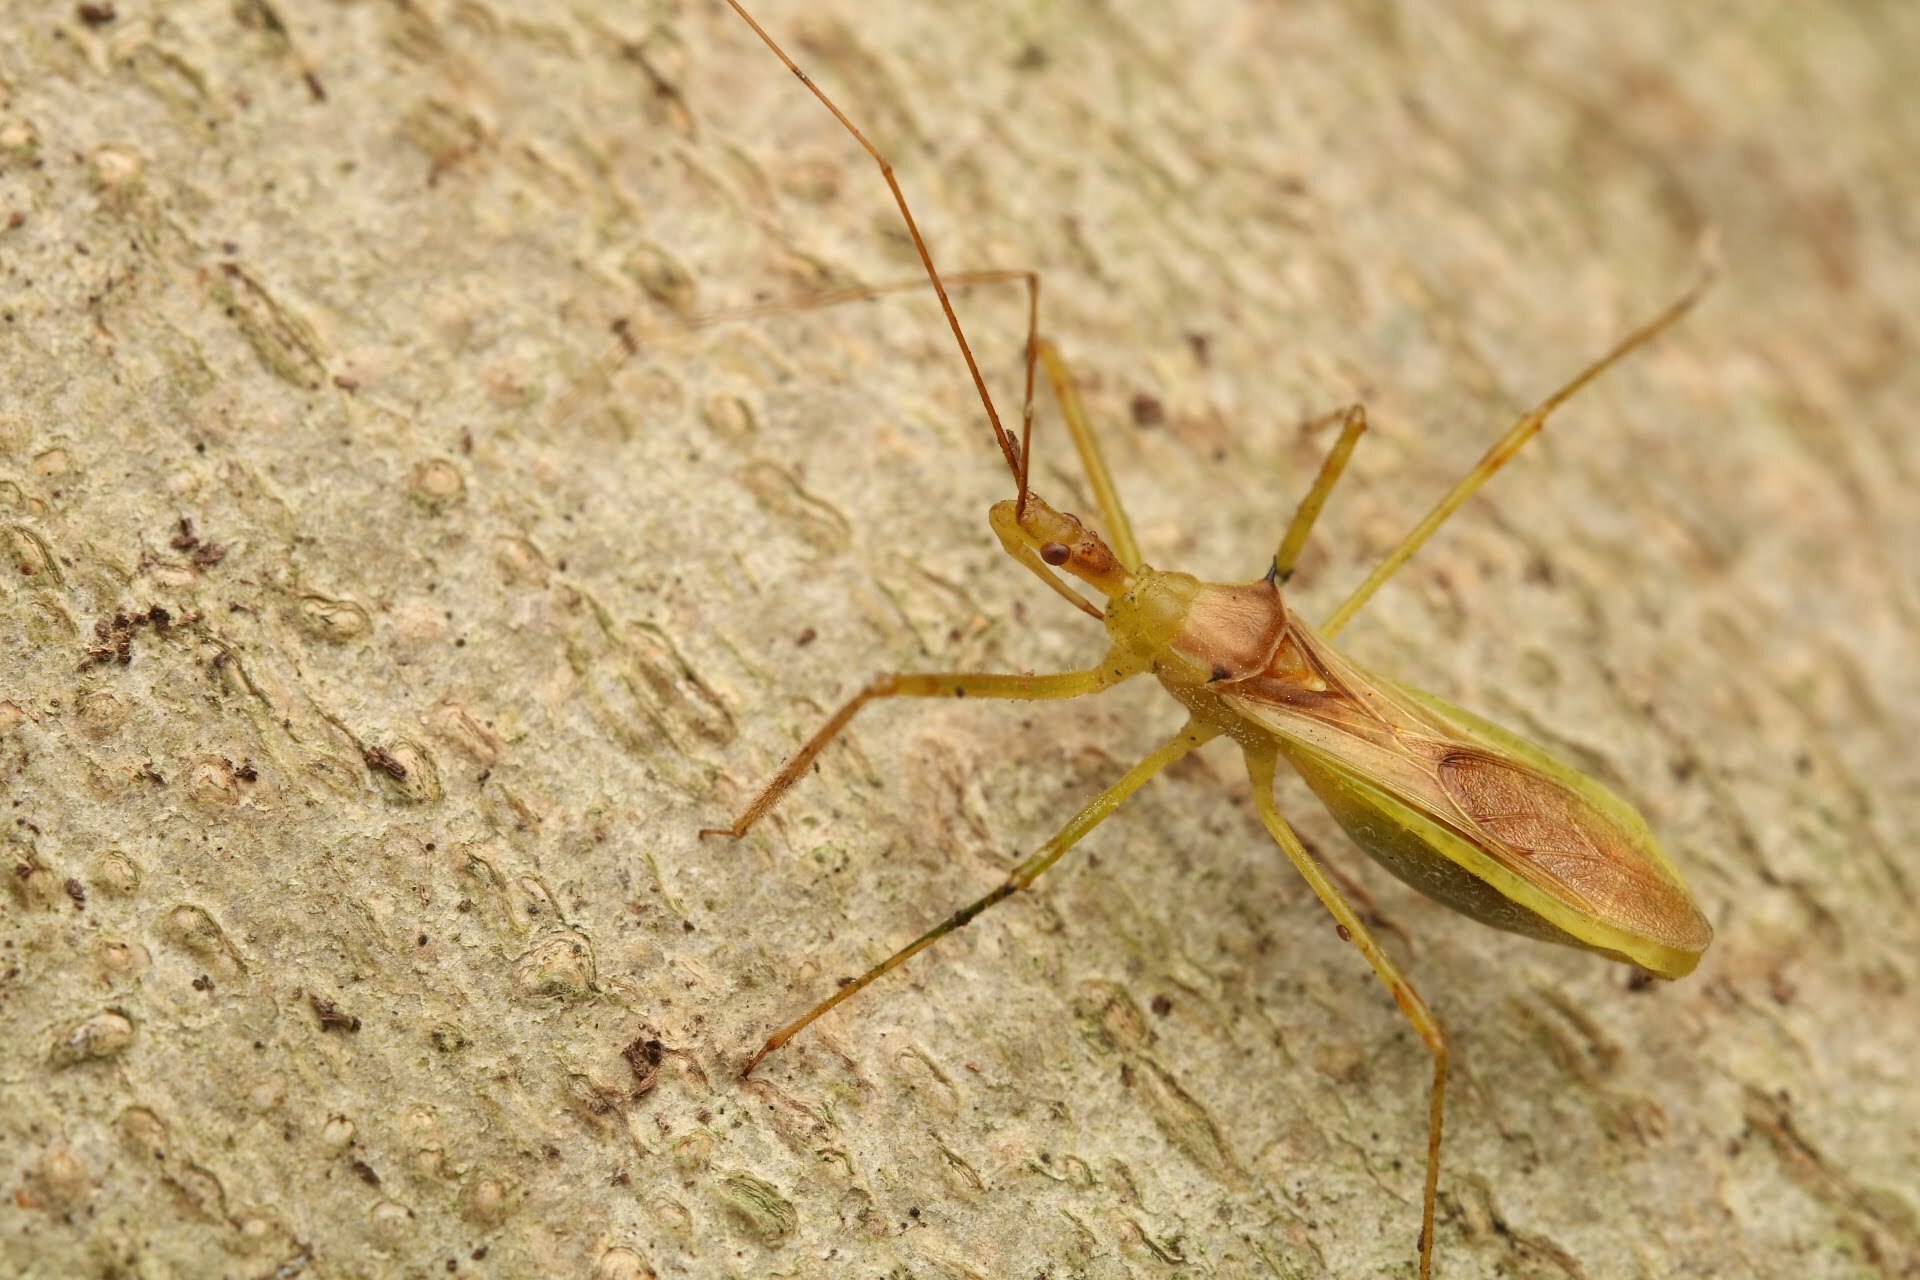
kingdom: Animalia
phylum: Arthropoda
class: Insecta
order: Hemiptera
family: Reduviidae
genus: Zelus
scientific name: Zelus luridus
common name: Pale green assassin bug
